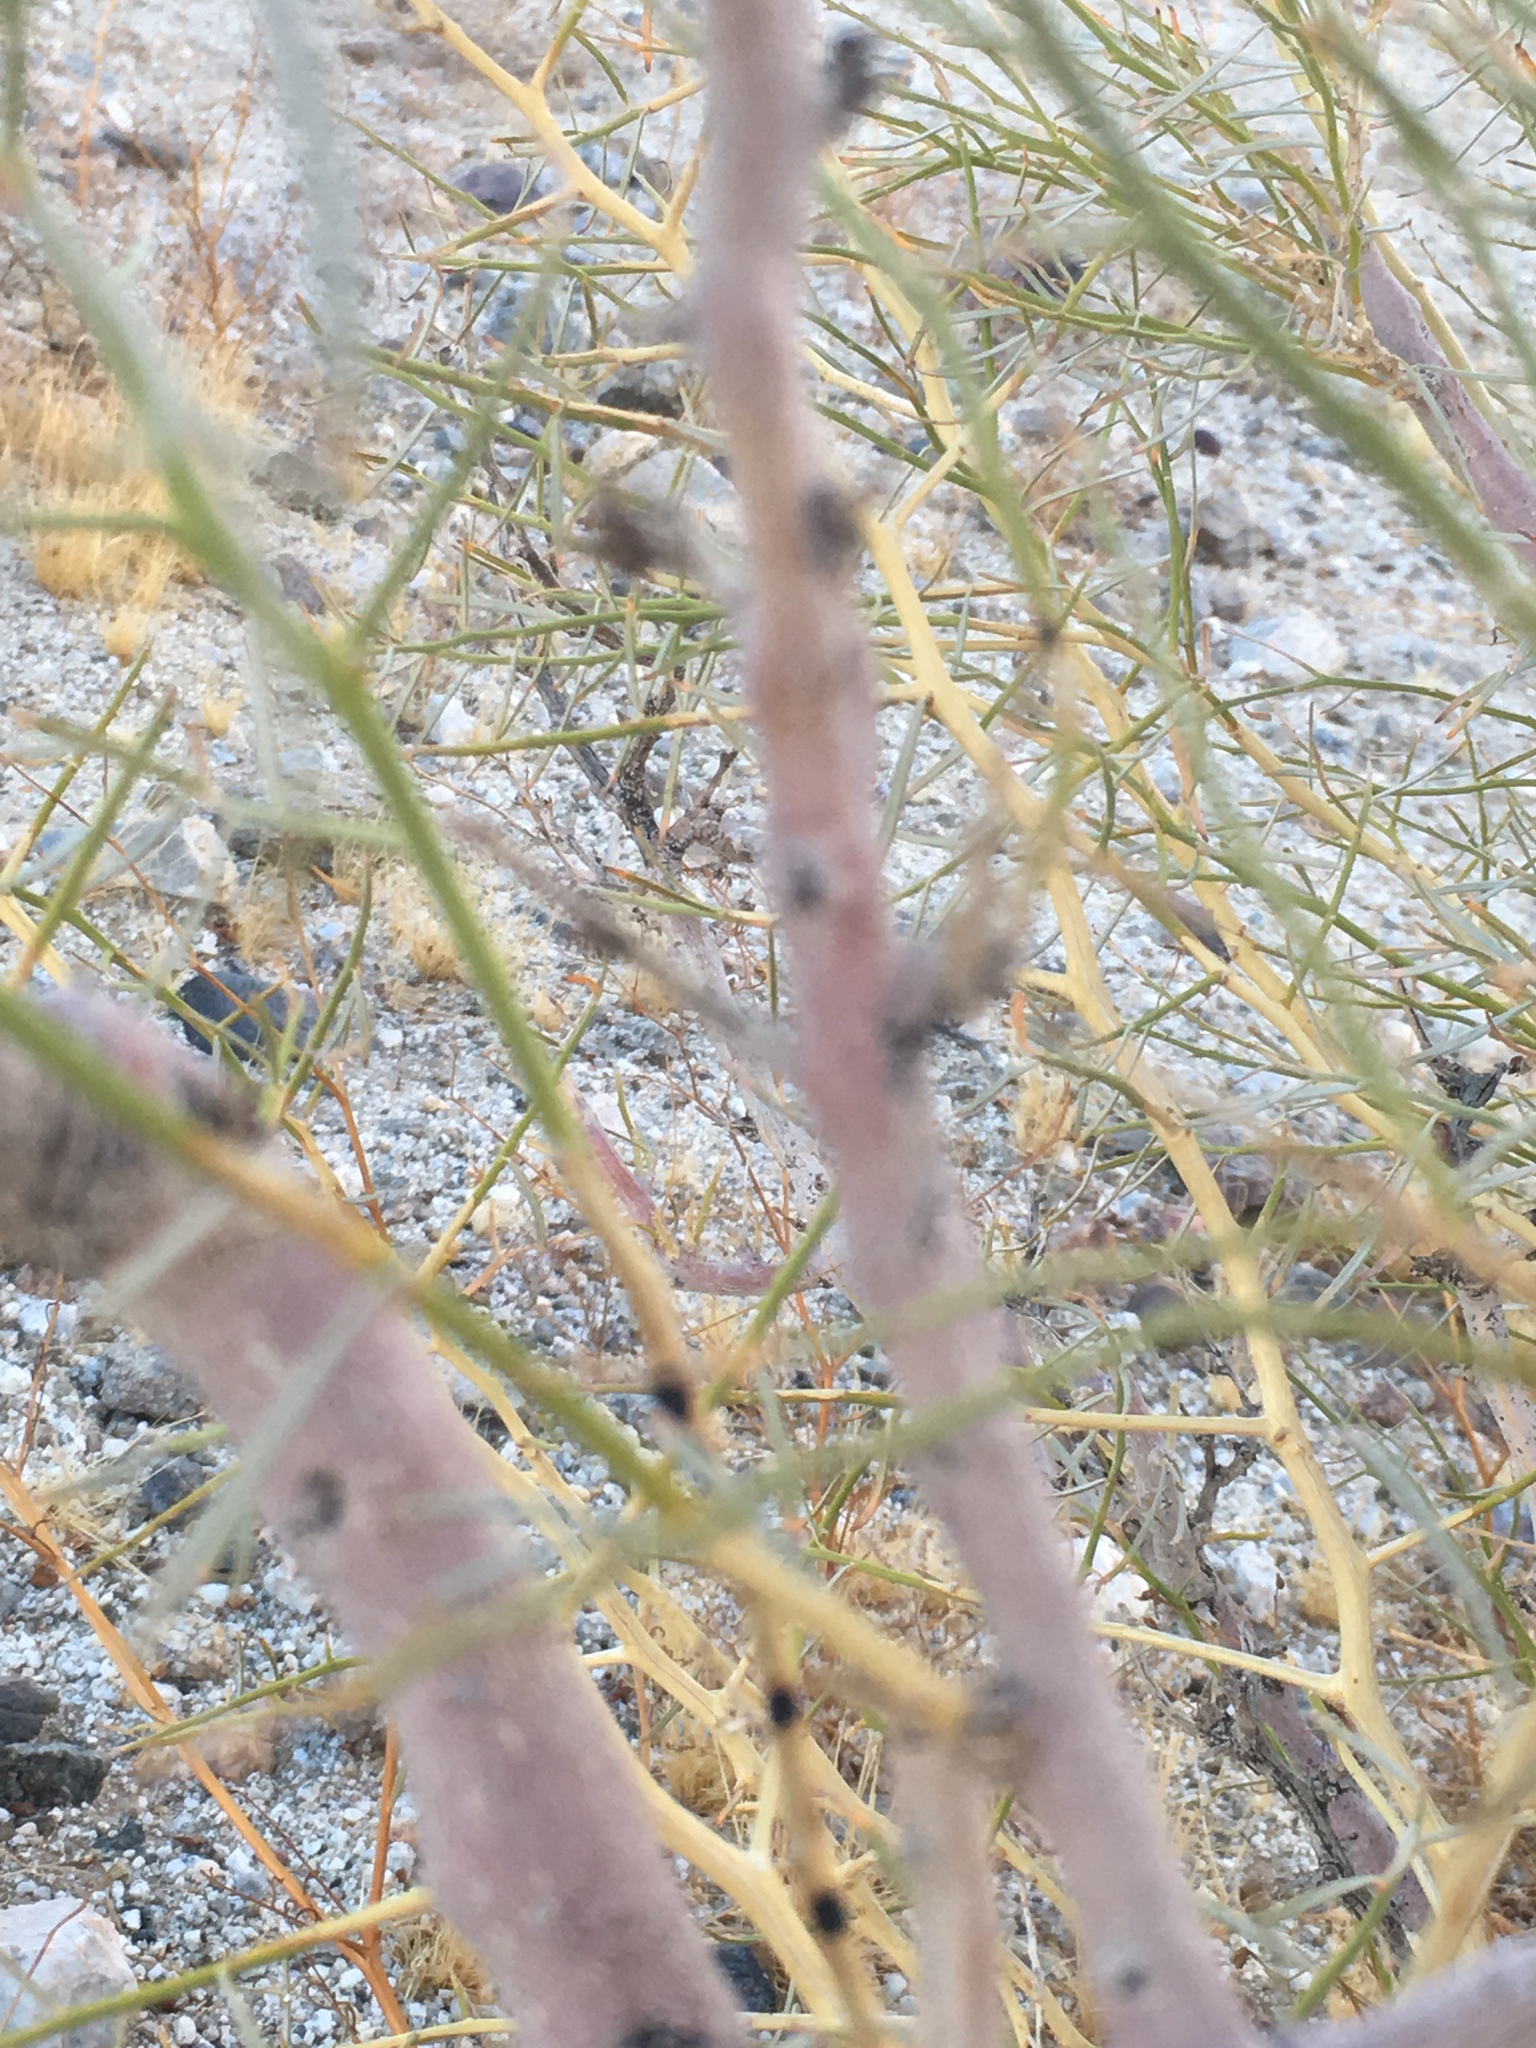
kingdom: Plantae
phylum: Tracheophyta
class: Magnoliopsida
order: Fabales
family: Fabaceae
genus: Psorothamnus
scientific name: Psorothamnus schottii
